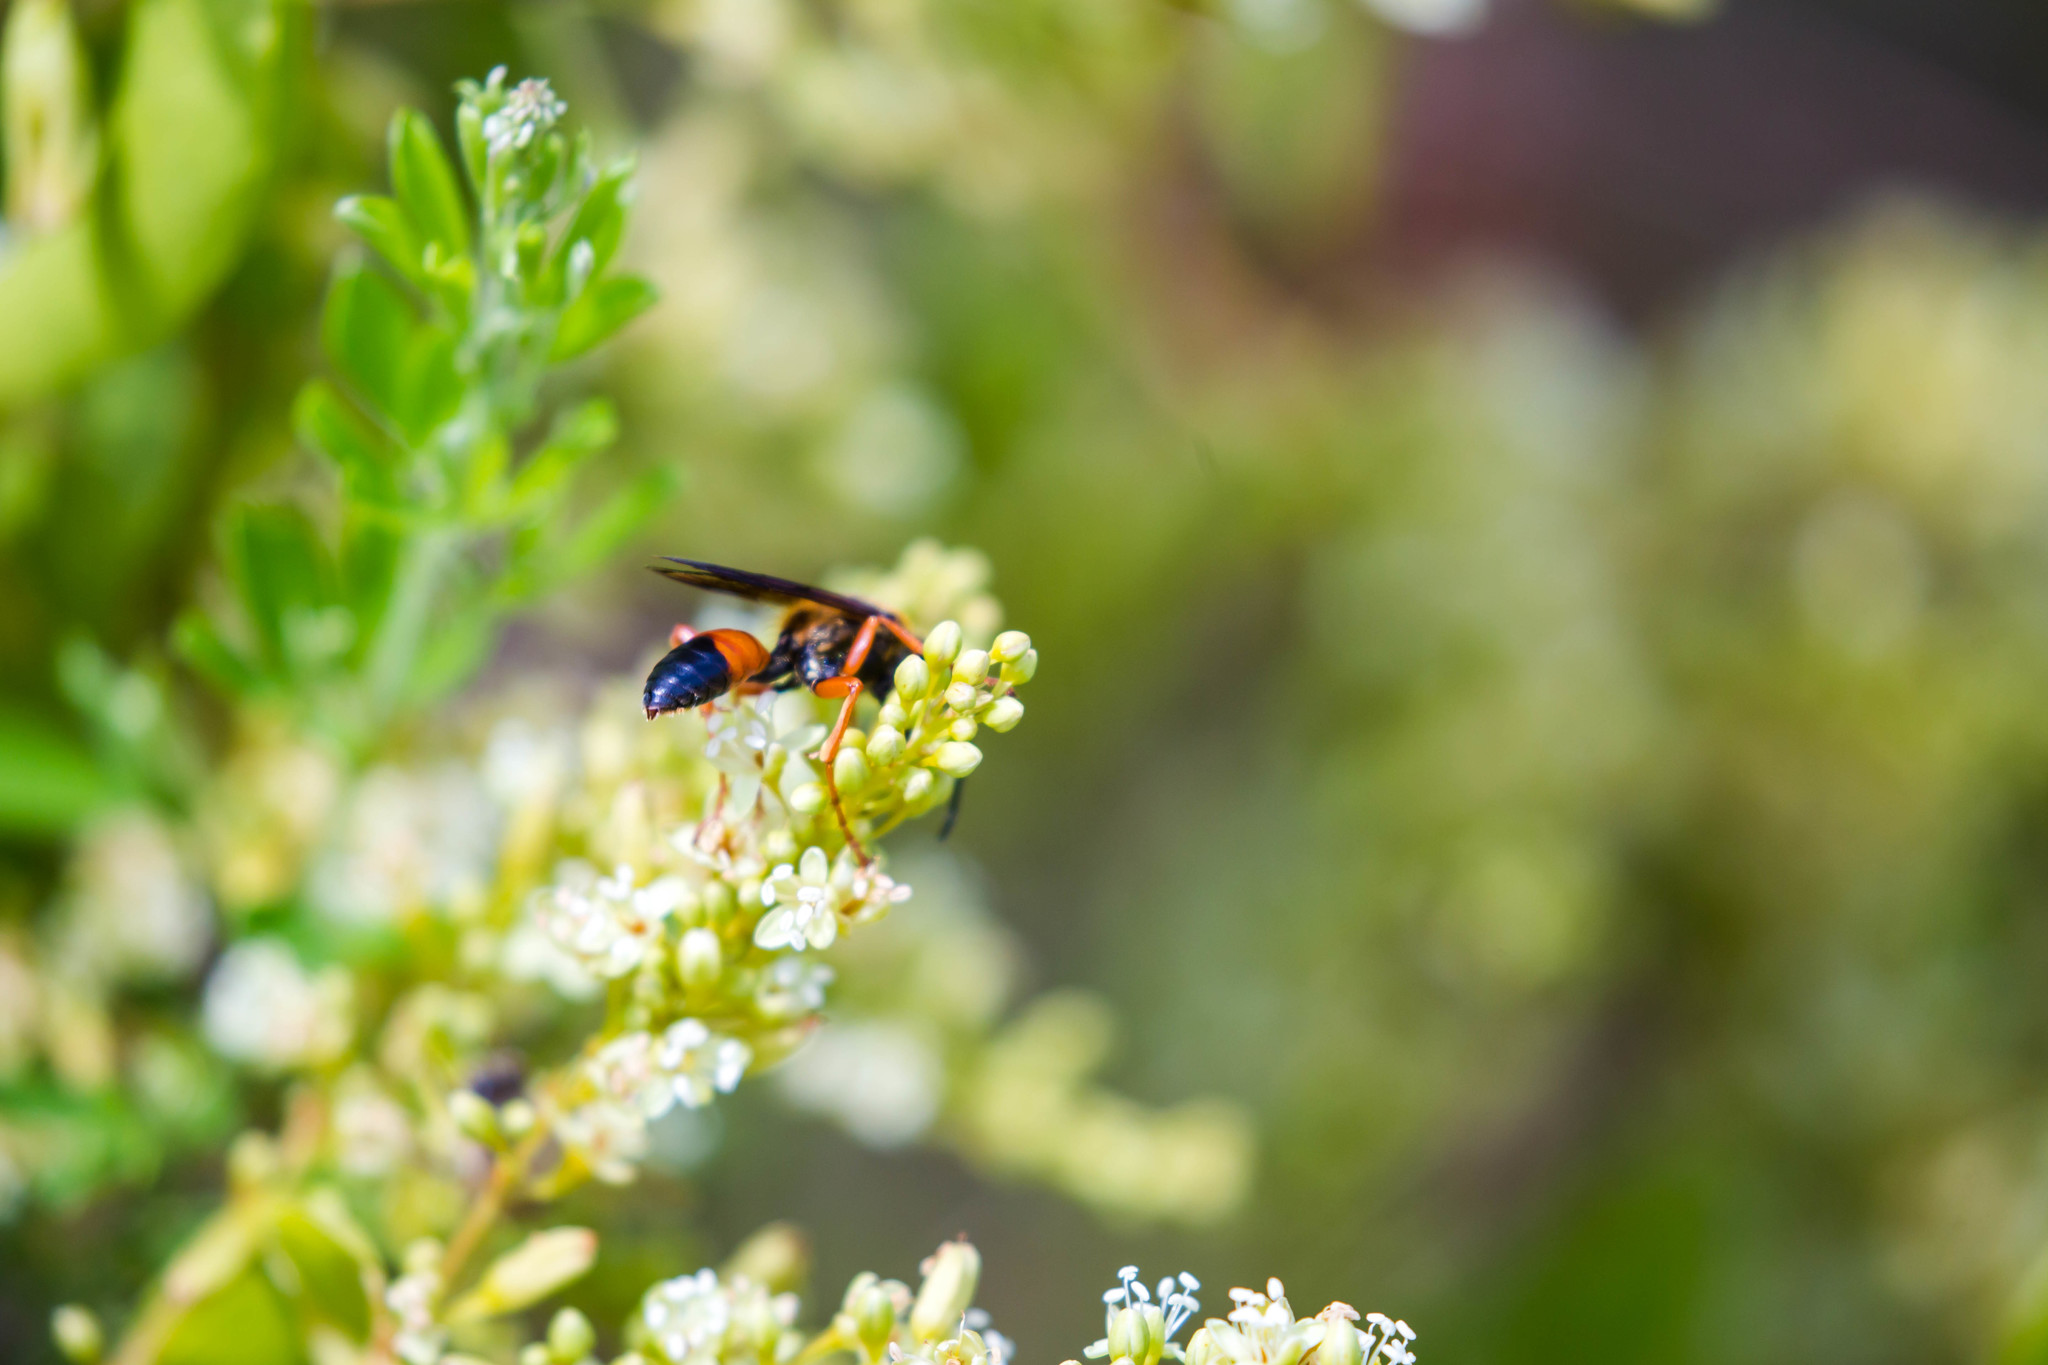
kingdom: Animalia
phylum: Arthropoda
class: Insecta
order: Hymenoptera
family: Sphecidae
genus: Sphex
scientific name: Sphex ichneumoneus
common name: Great golden digger wasp
